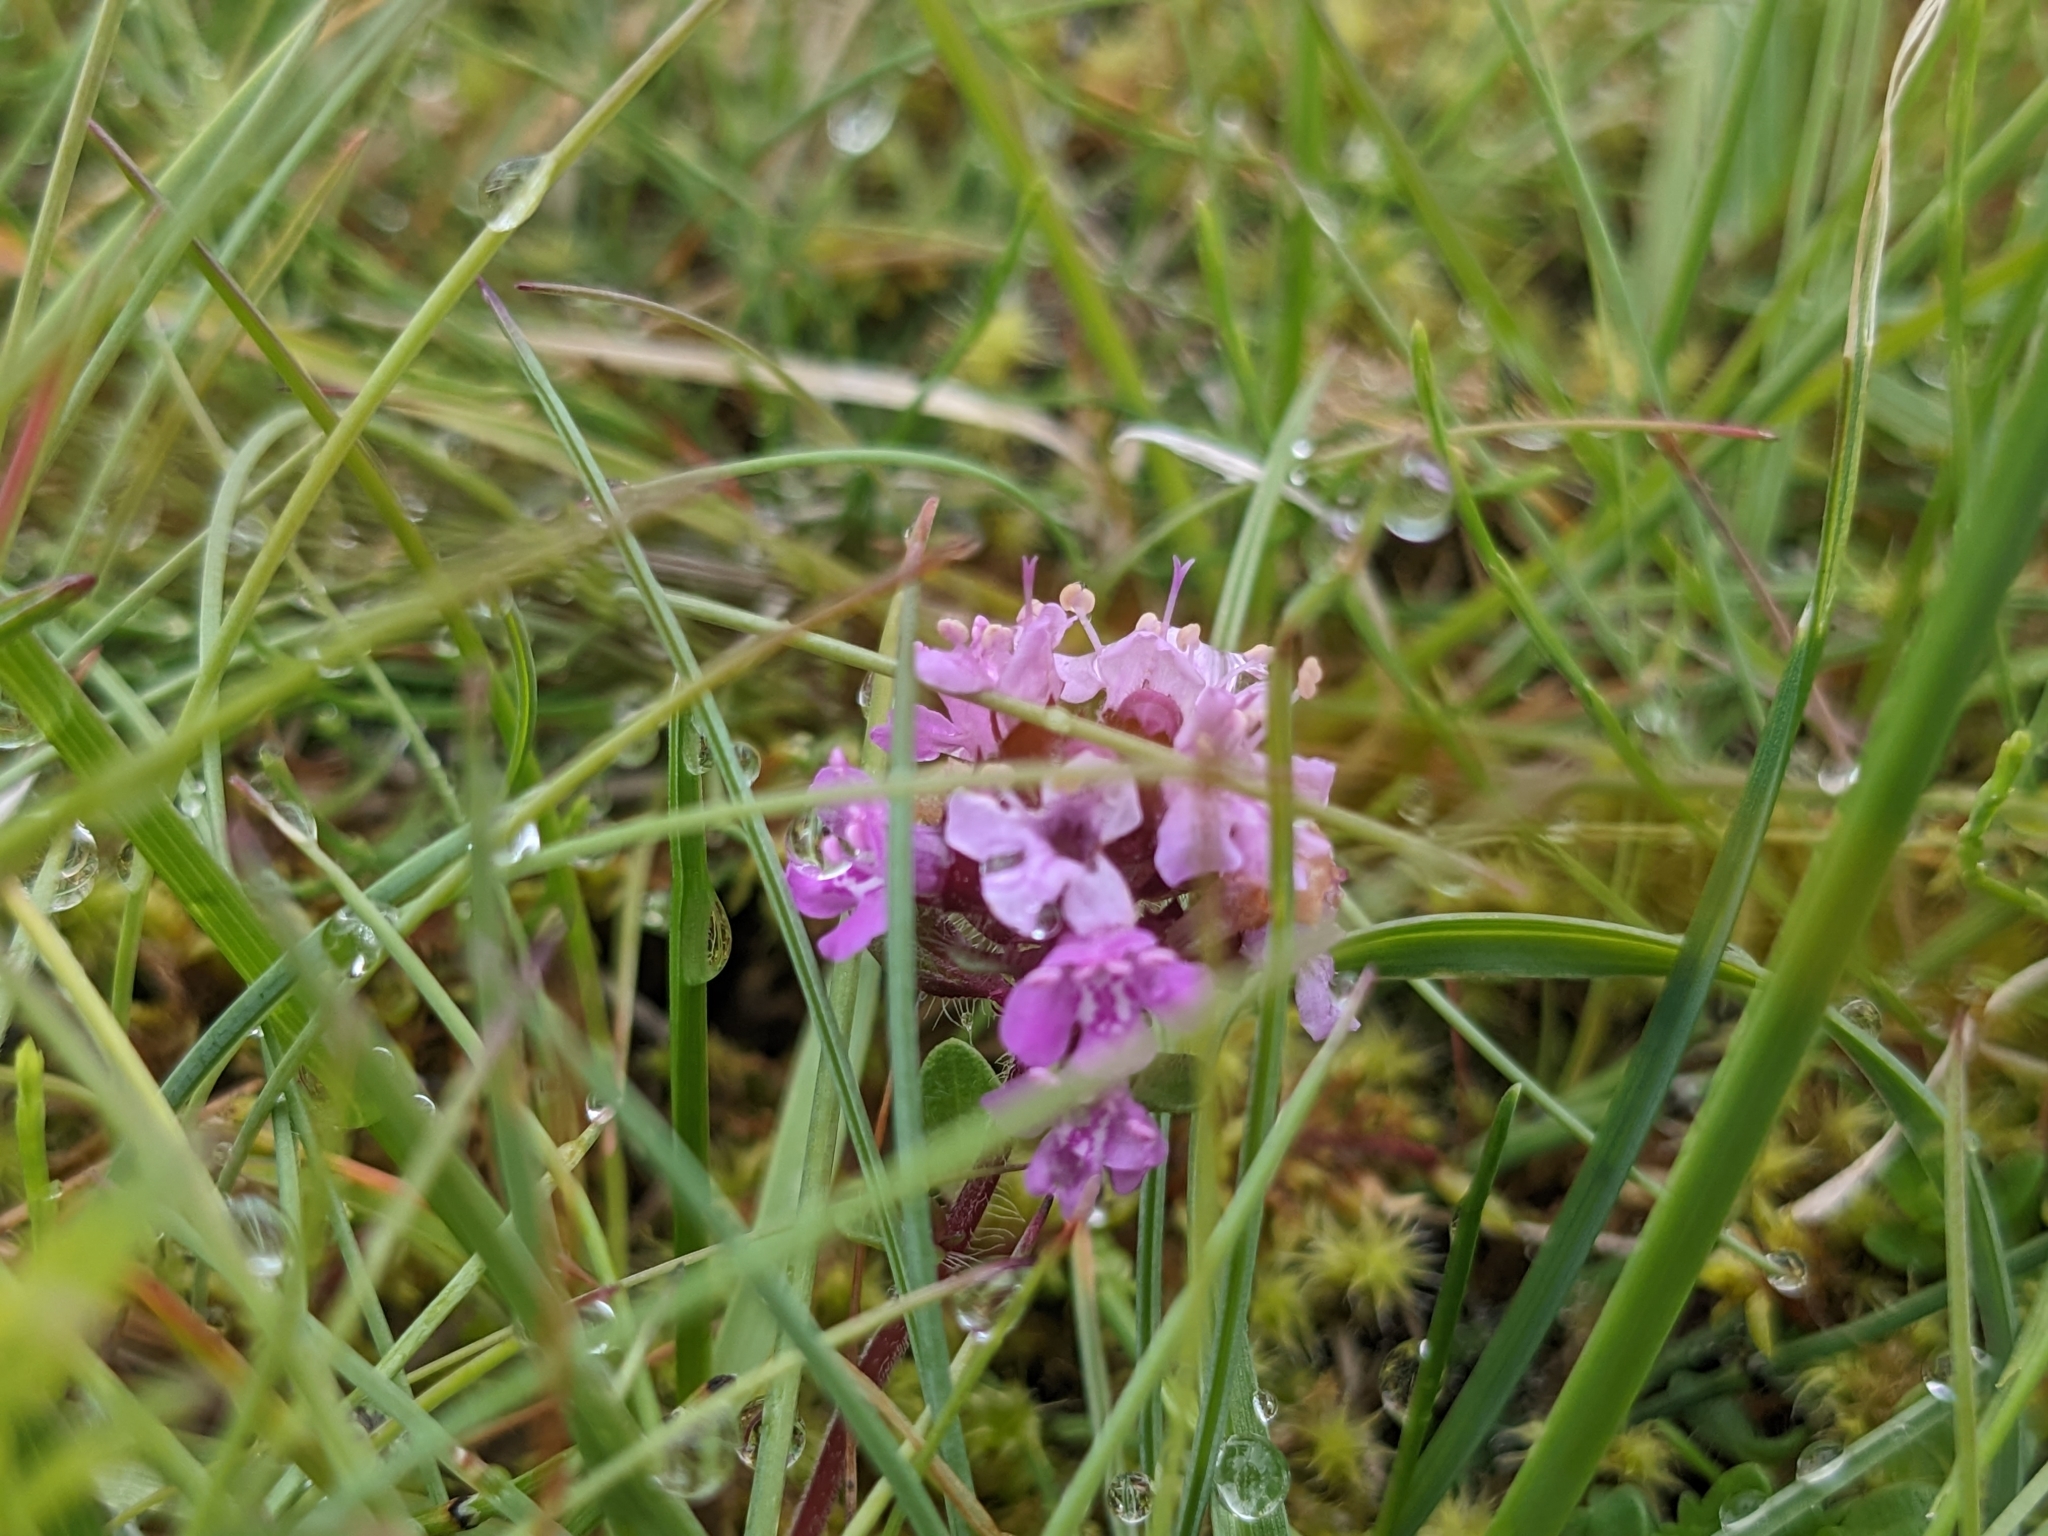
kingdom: Plantae
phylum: Tracheophyta
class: Magnoliopsida
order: Lamiales
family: Lamiaceae
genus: Thymus
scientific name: Thymus praecox
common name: Wild thyme
